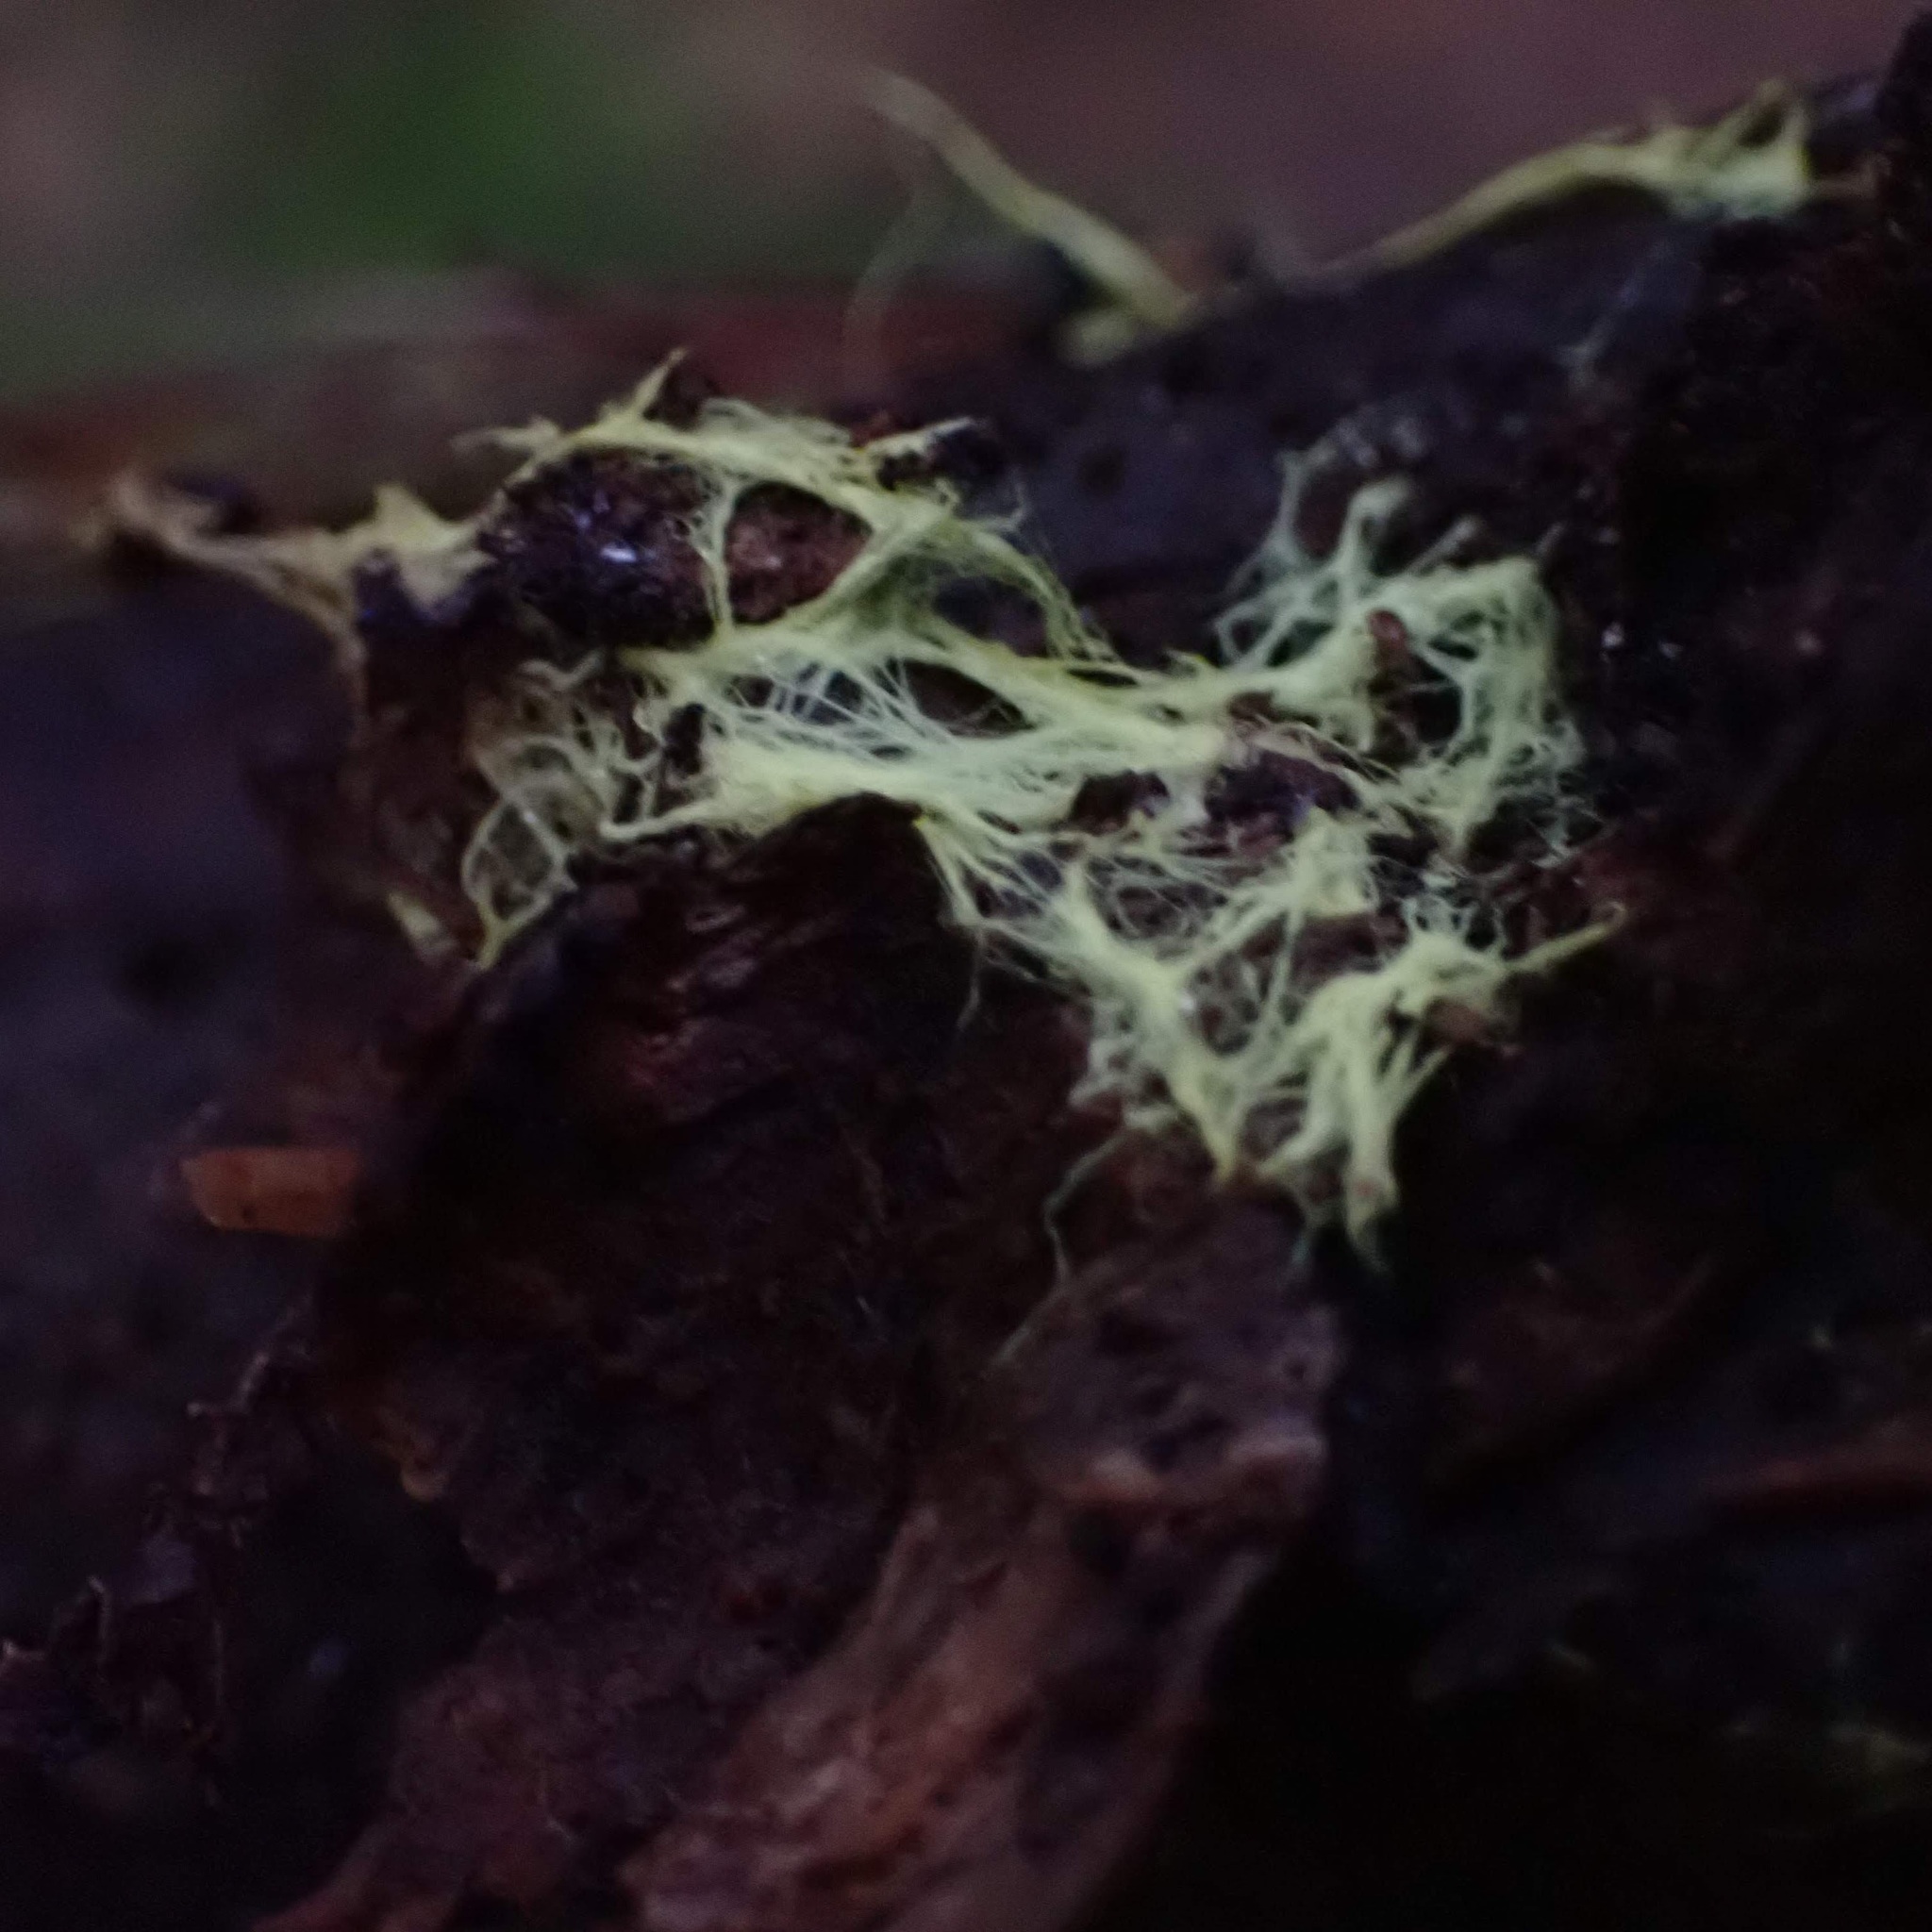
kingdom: Fungi
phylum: Basidiomycota
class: Agaricomycetes
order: Russulales
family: Xenasmataceae
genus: Xenasmatella
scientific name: Xenasmatella vaga
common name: Yellow cobweb
